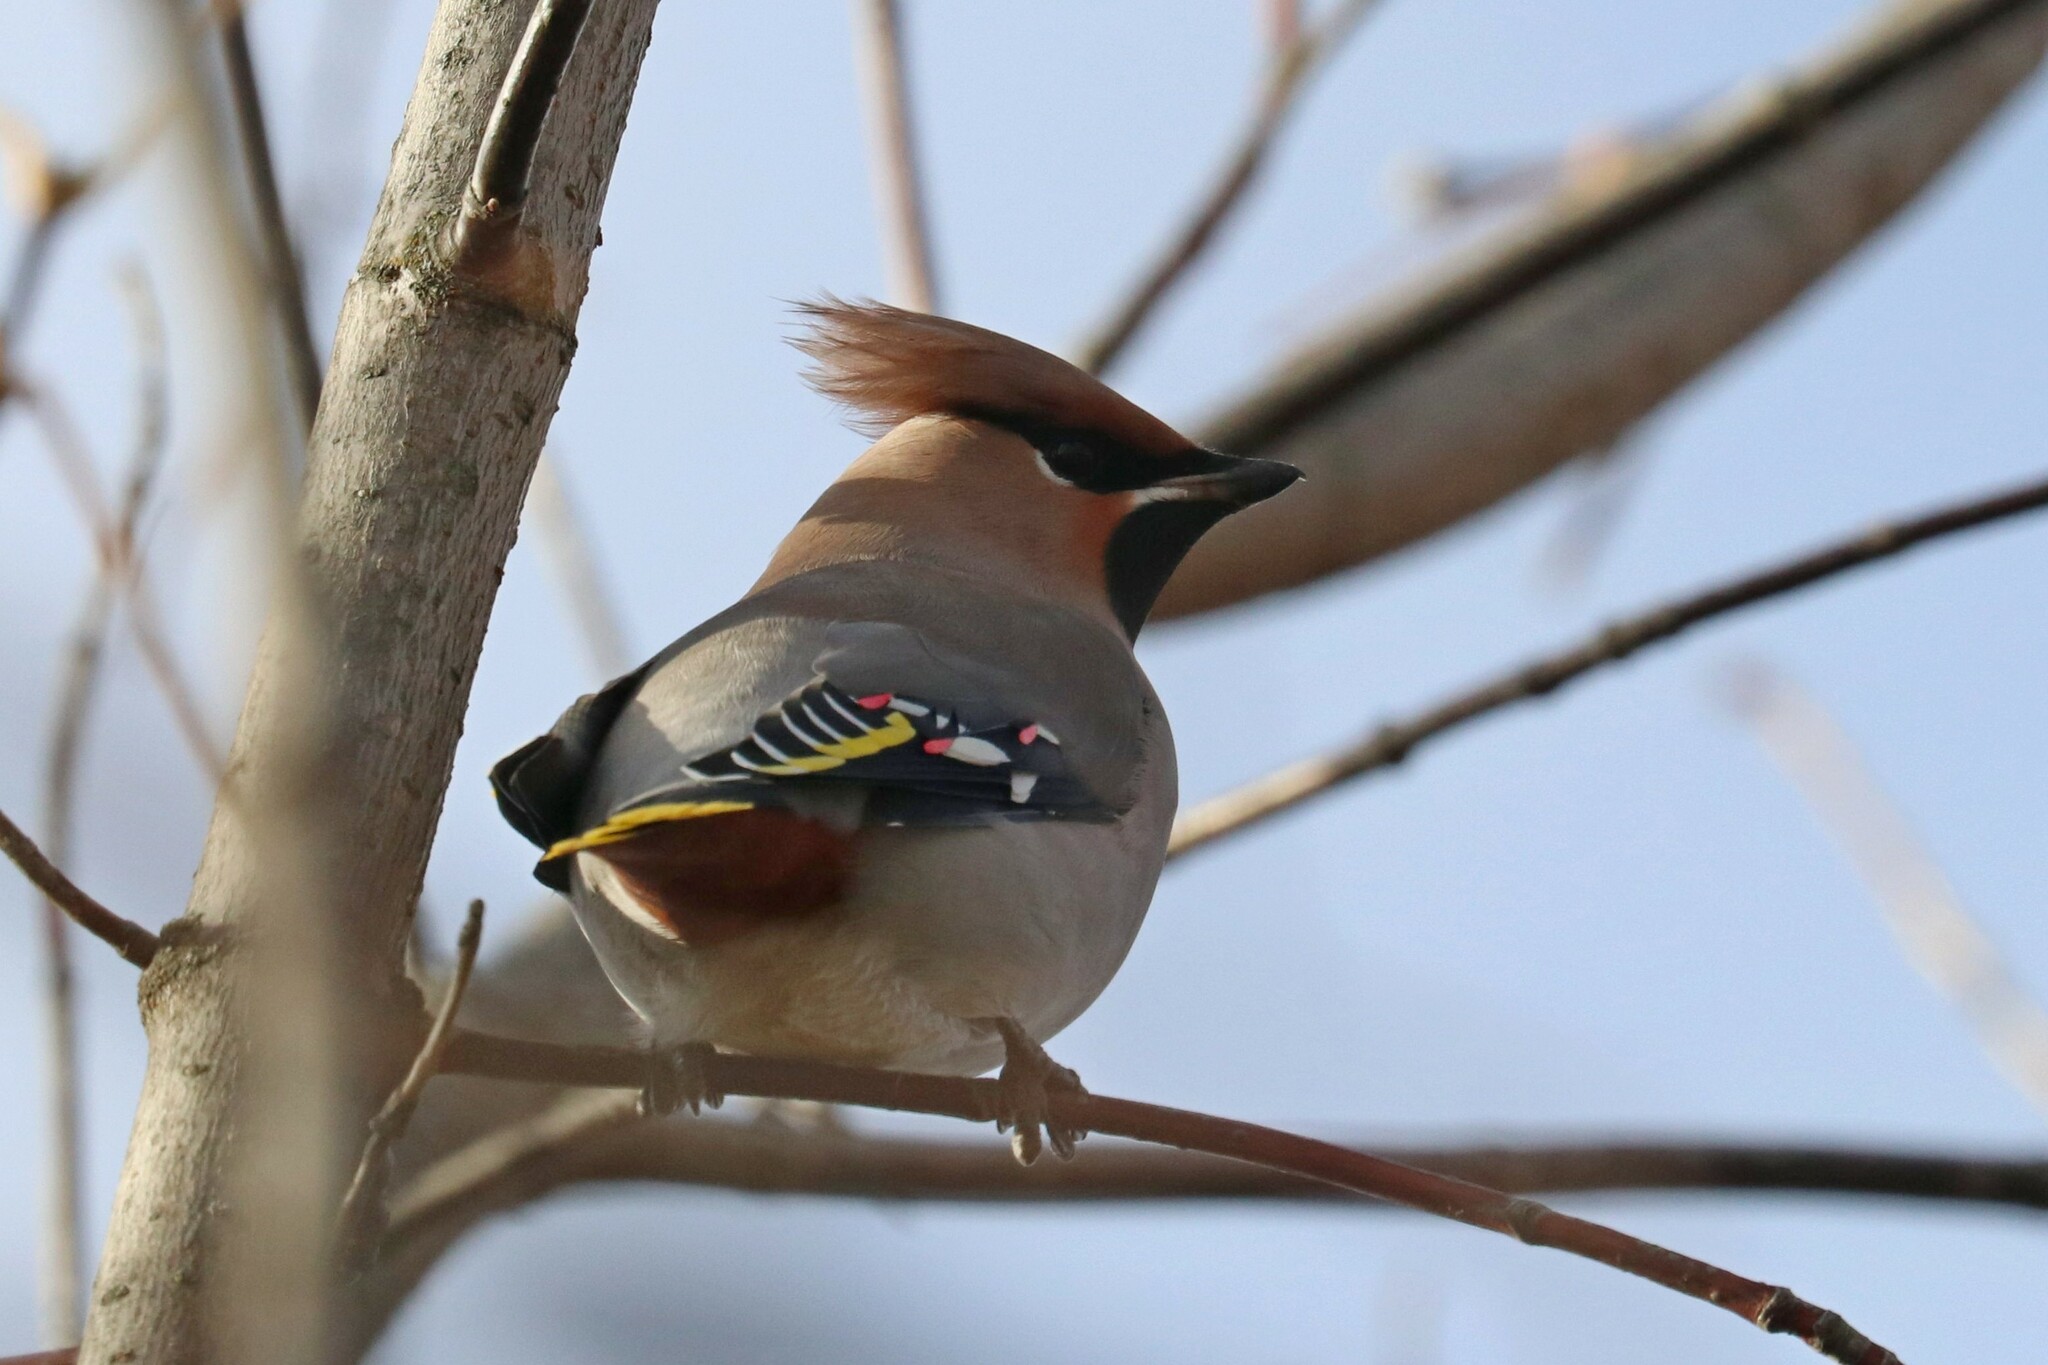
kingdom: Animalia
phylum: Chordata
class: Aves
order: Passeriformes
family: Bombycillidae
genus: Bombycilla
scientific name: Bombycilla garrulus
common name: Bohemian waxwing
